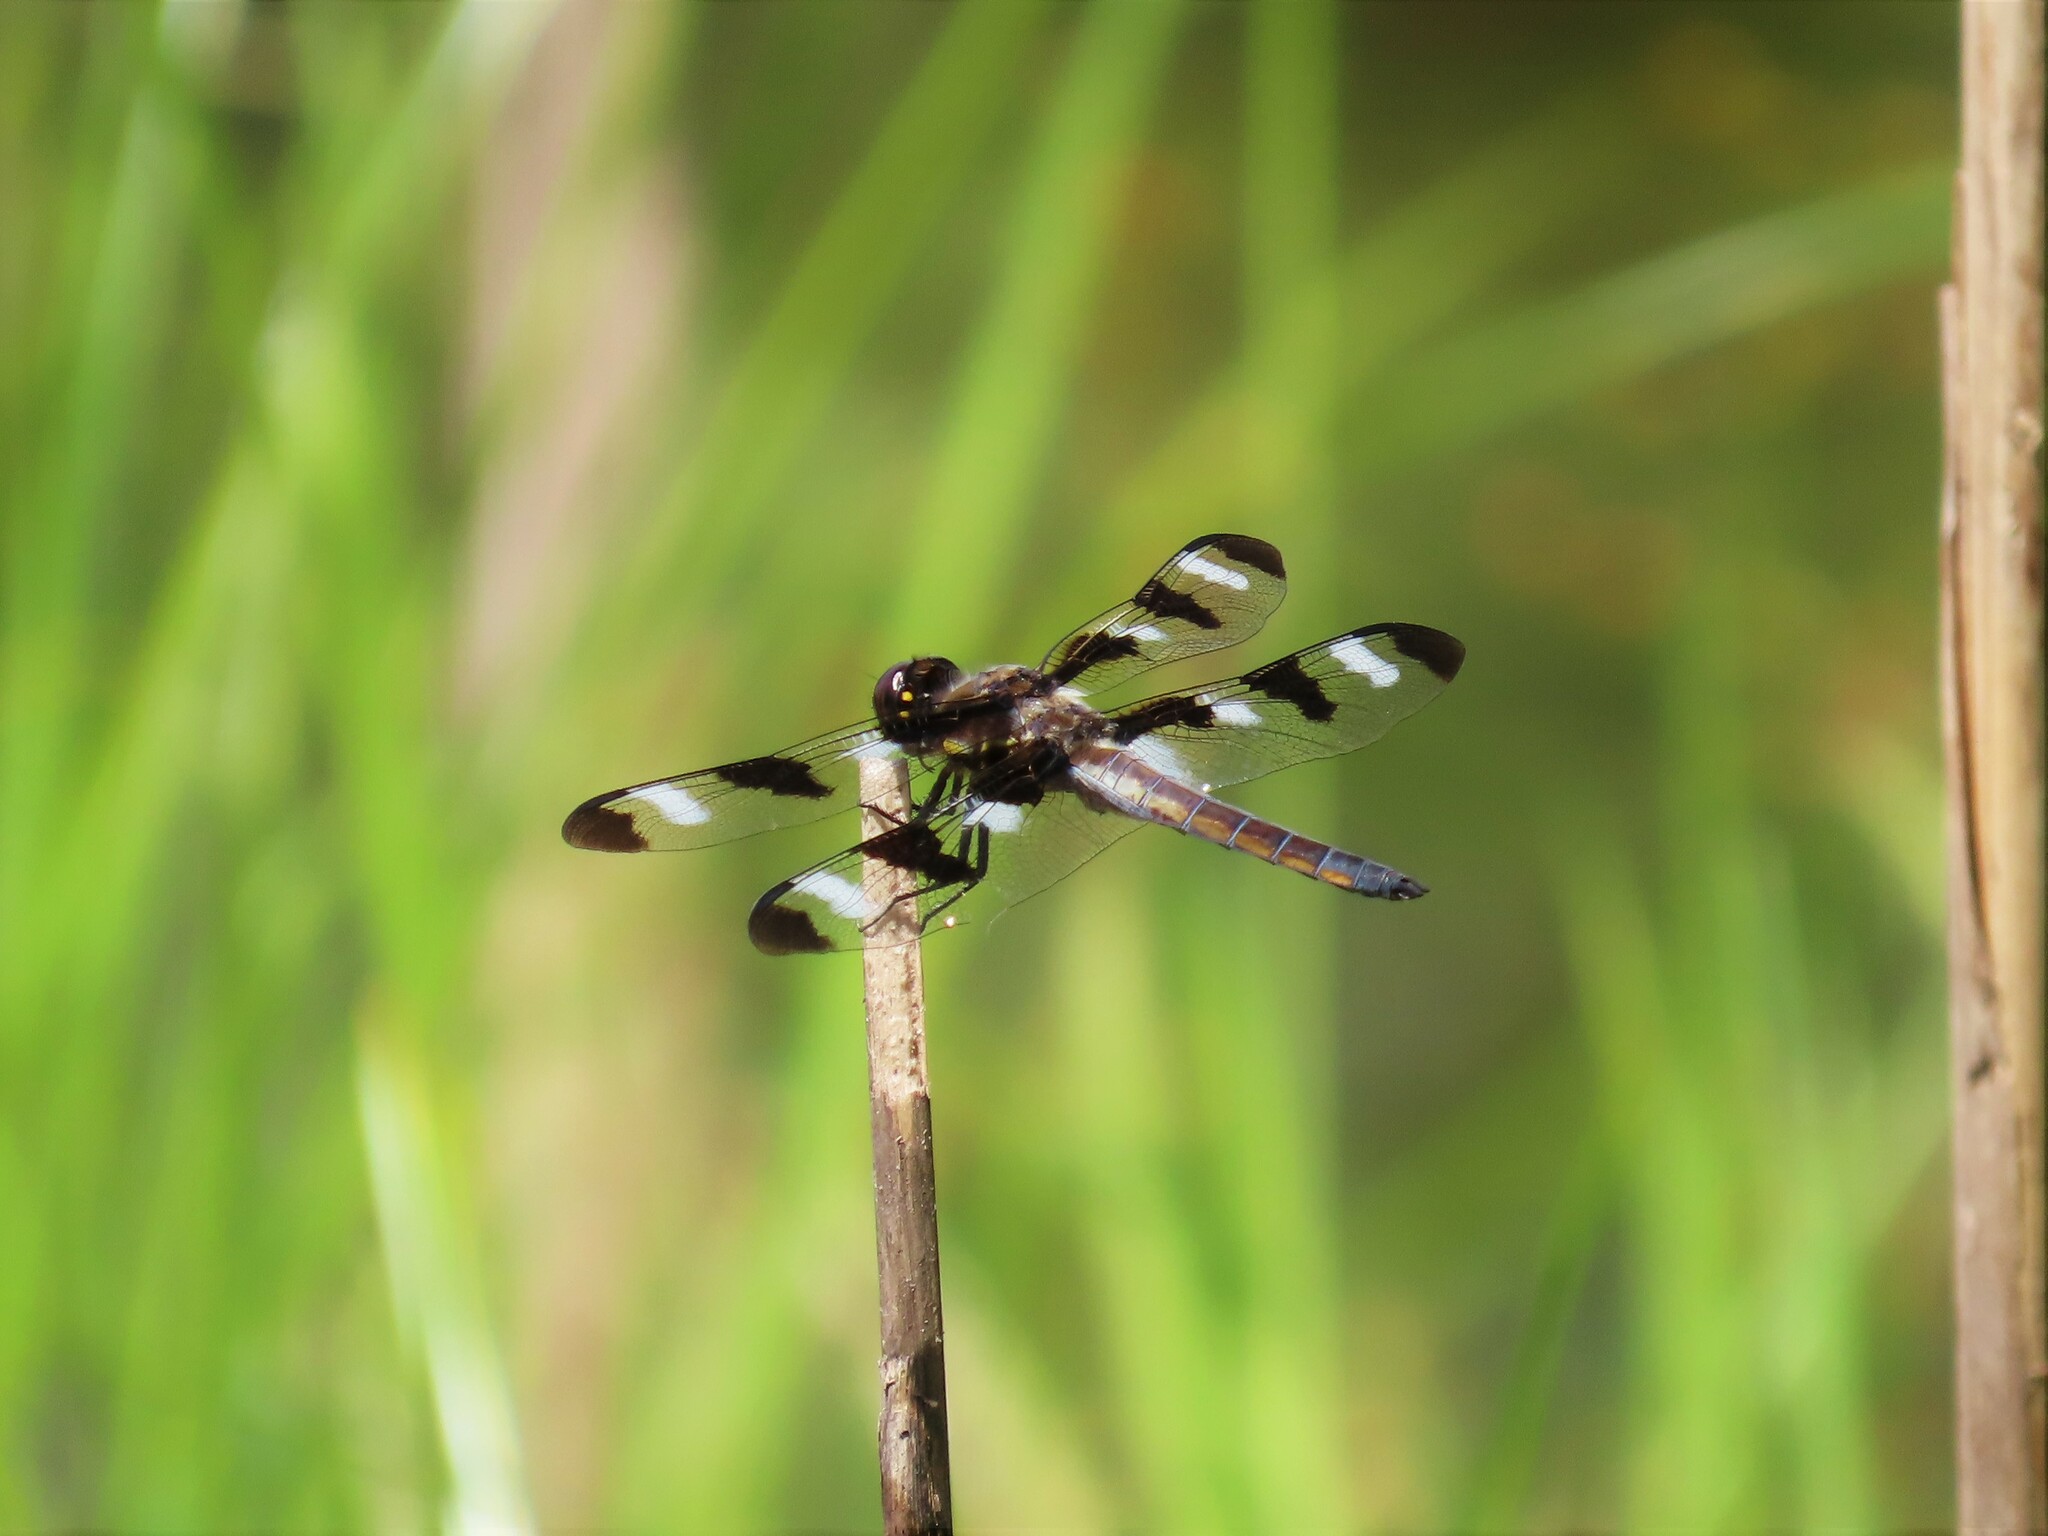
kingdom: Animalia
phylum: Arthropoda
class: Insecta
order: Odonata
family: Libellulidae
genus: Libellula
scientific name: Libellula pulchella
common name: Twelve-spotted skimmer
